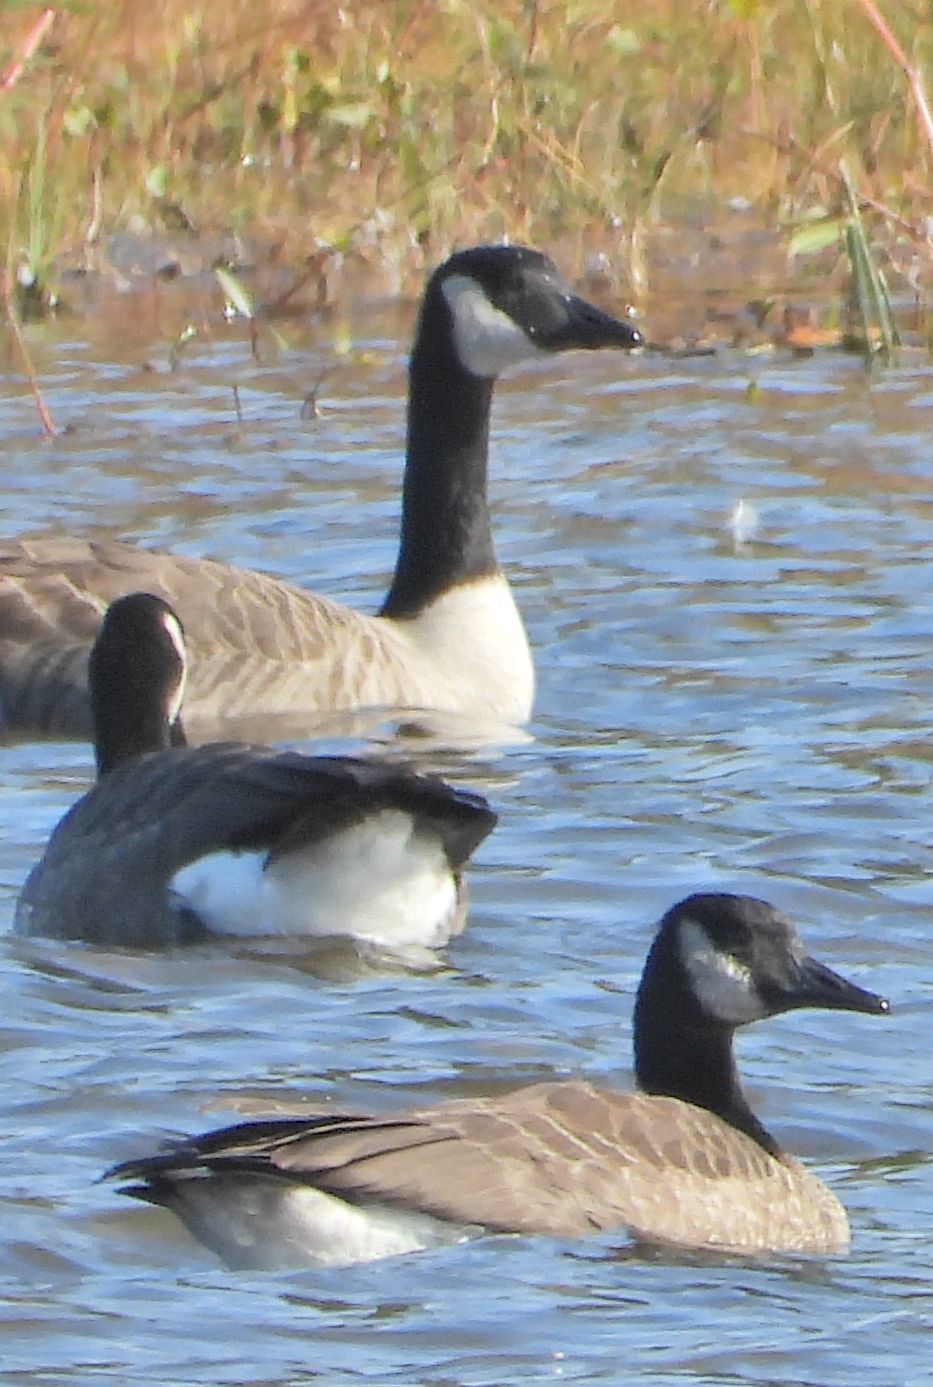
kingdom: Animalia
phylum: Chordata
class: Aves
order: Anseriformes
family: Anatidae
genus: Branta
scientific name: Branta canadensis
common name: Canada goose
